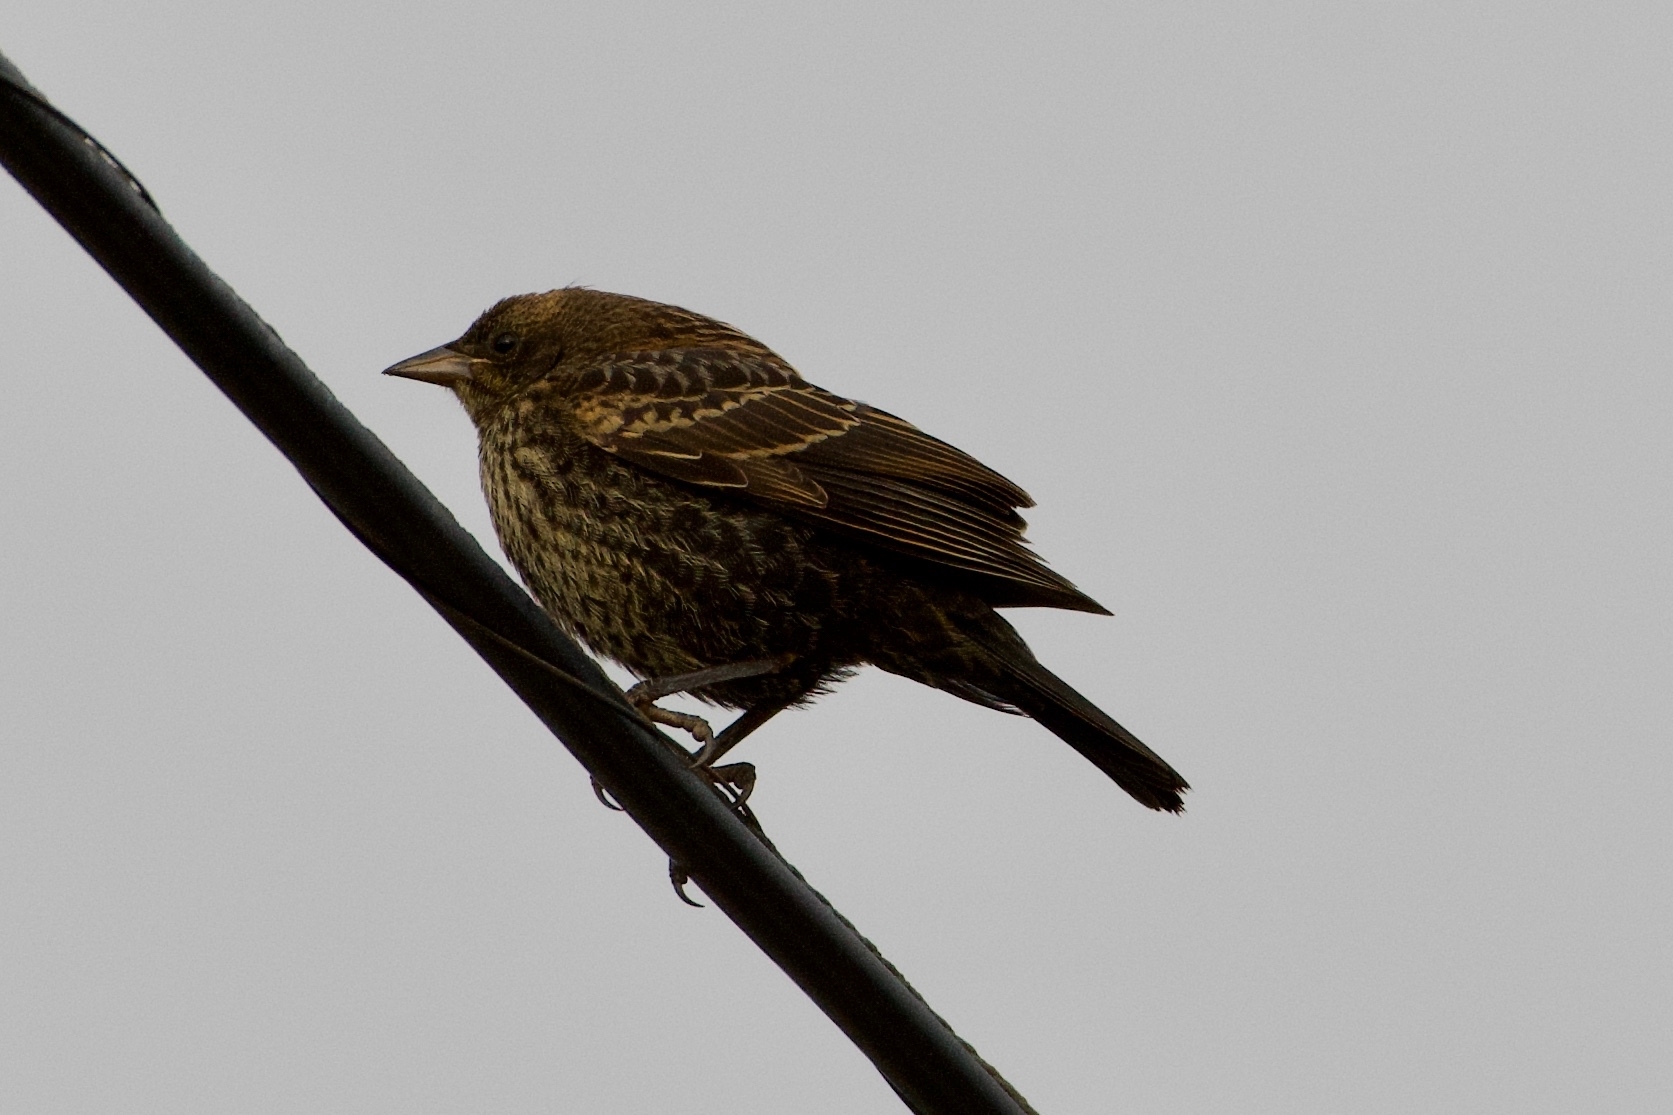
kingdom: Animalia
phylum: Chordata
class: Aves
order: Passeriformes
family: Icteridae
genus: Agelaius
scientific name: Agelaius phoeniceus
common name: Red-winged blackbird
